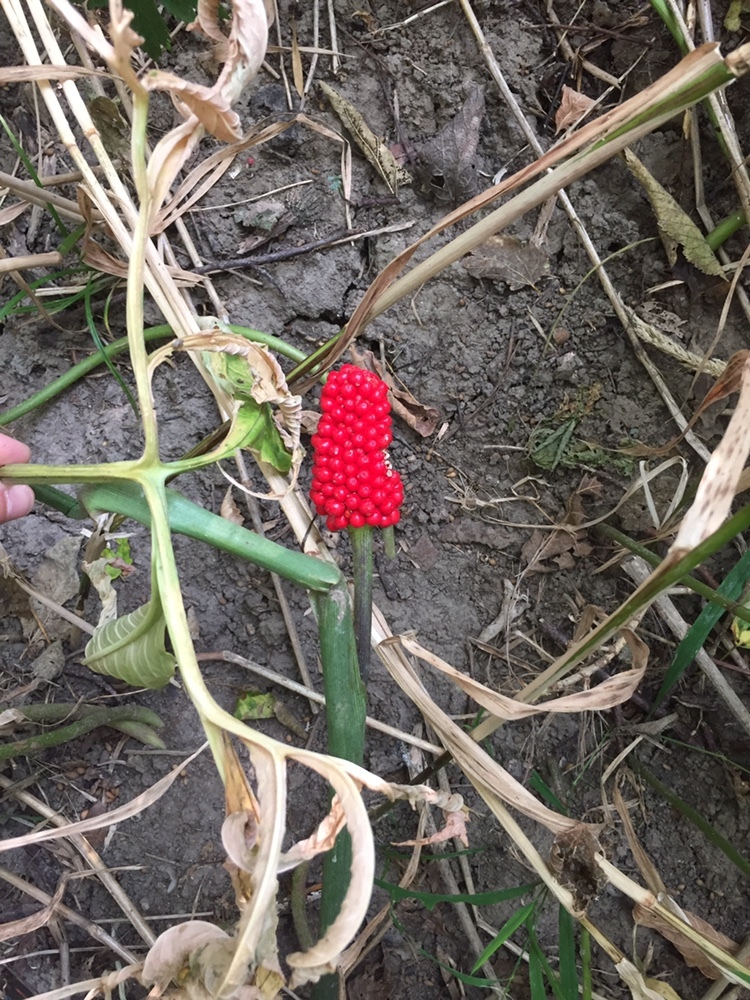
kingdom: Plantae
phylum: Tracheophyta
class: Liliopsida
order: Alismatales
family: Araceae
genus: Arisaema
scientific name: Arisaema dracontium
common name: Dragon-arum
